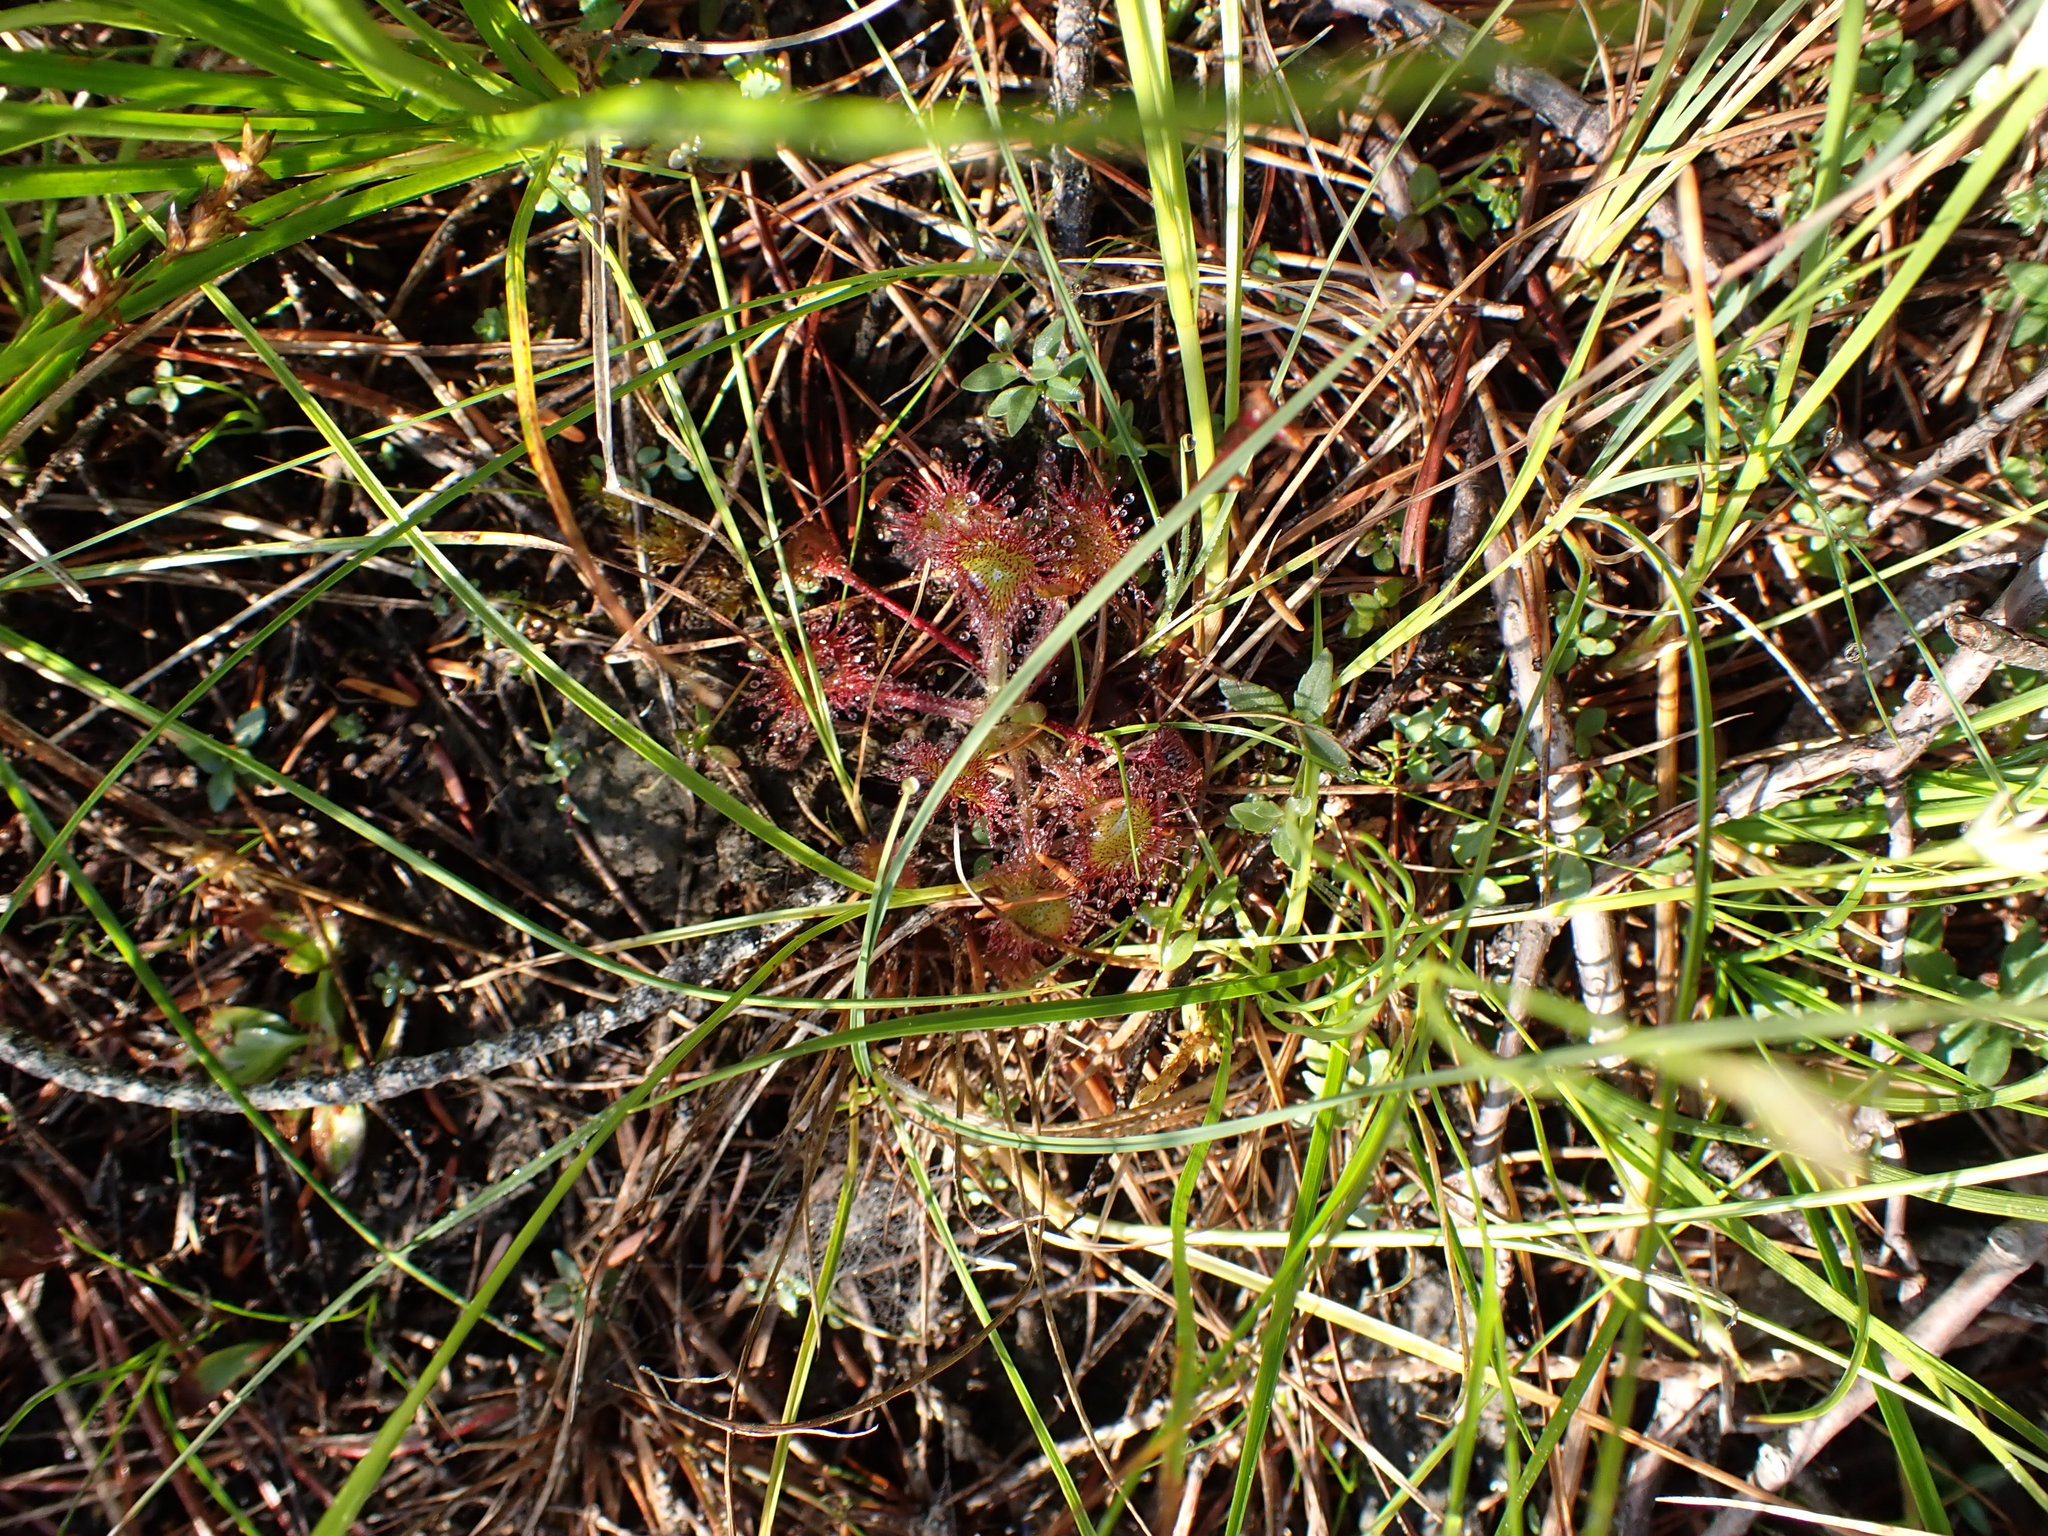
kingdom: Plantae
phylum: Tracheophyta
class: Magnoliopsida
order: Caryophyllales
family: Droseraceae
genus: Drosera
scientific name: Drosera rotundifolia
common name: Round-leaved sundew
